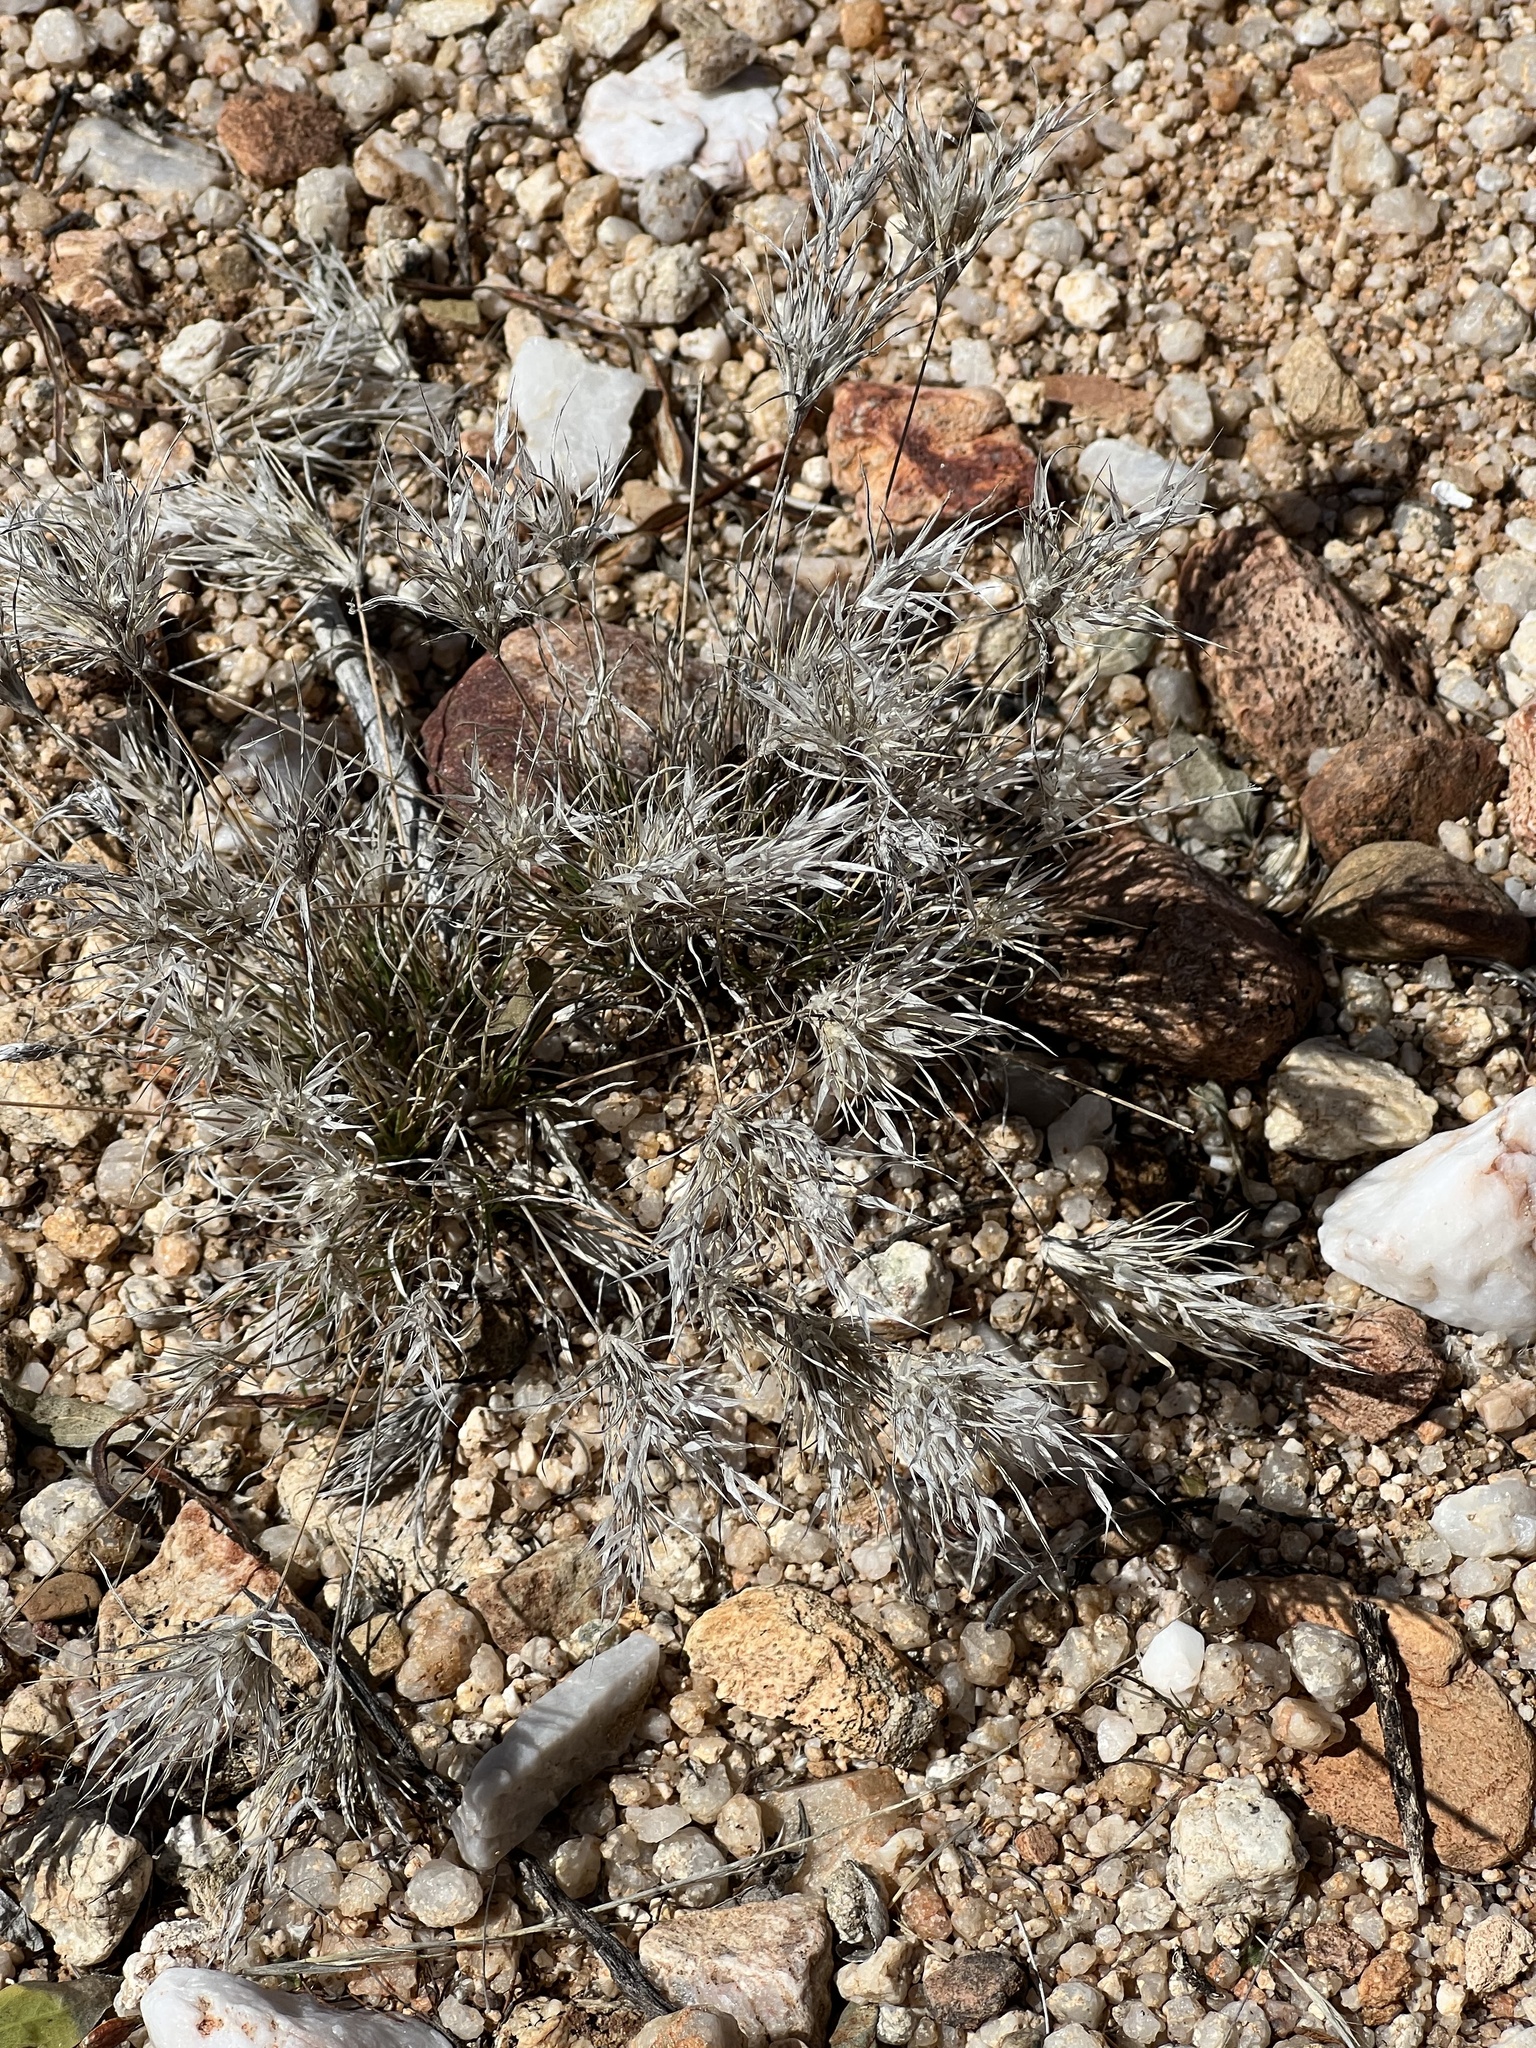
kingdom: Plantae
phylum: Tracheophyta
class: Liliopsida
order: Poales
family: Poaceae
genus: Dasyochloa
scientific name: Dasyochloa pulchella
